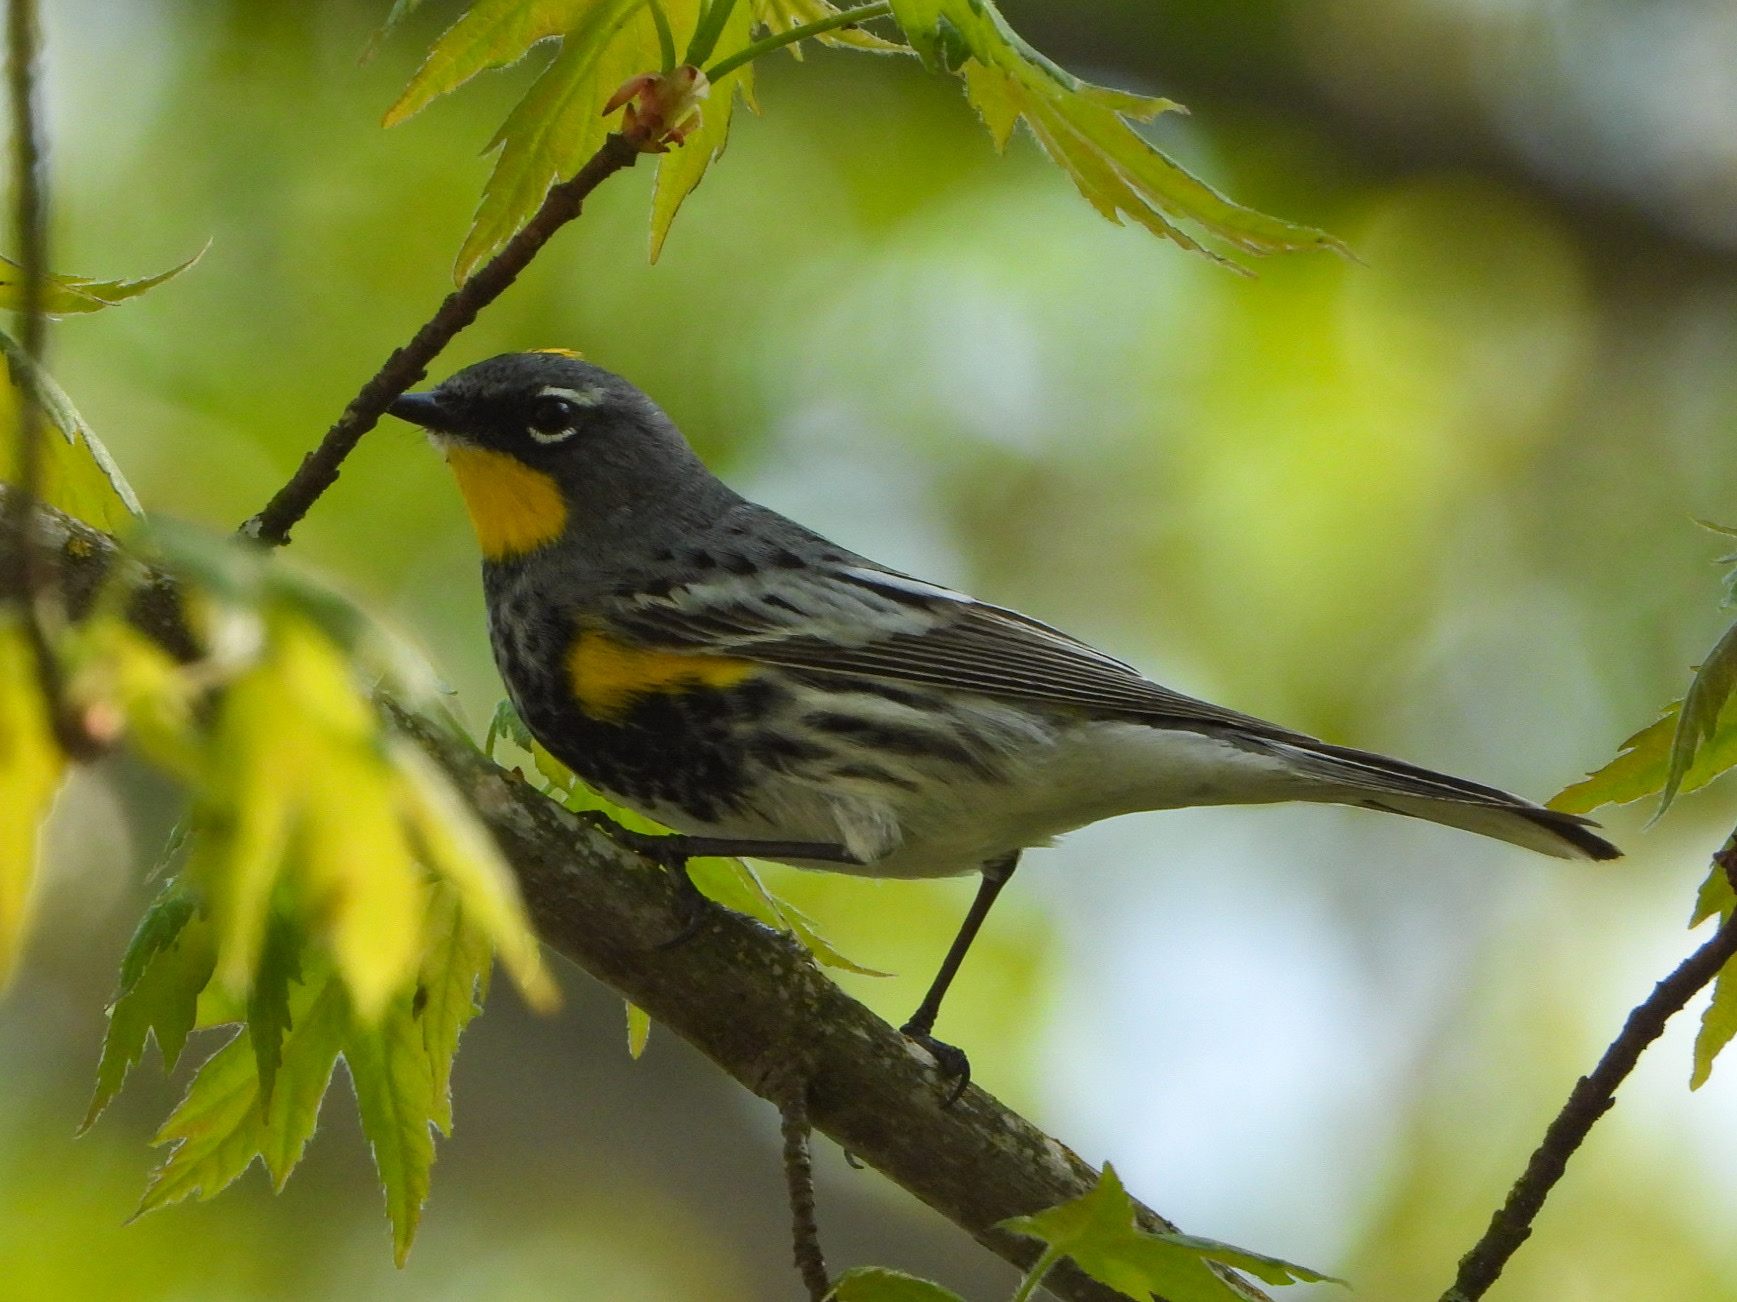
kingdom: Animalia
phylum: Chordata
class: Aves
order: Passeriformes
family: Parulidae
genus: Setophaga
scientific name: Setophaga auduboni
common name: Audubon's warbler
